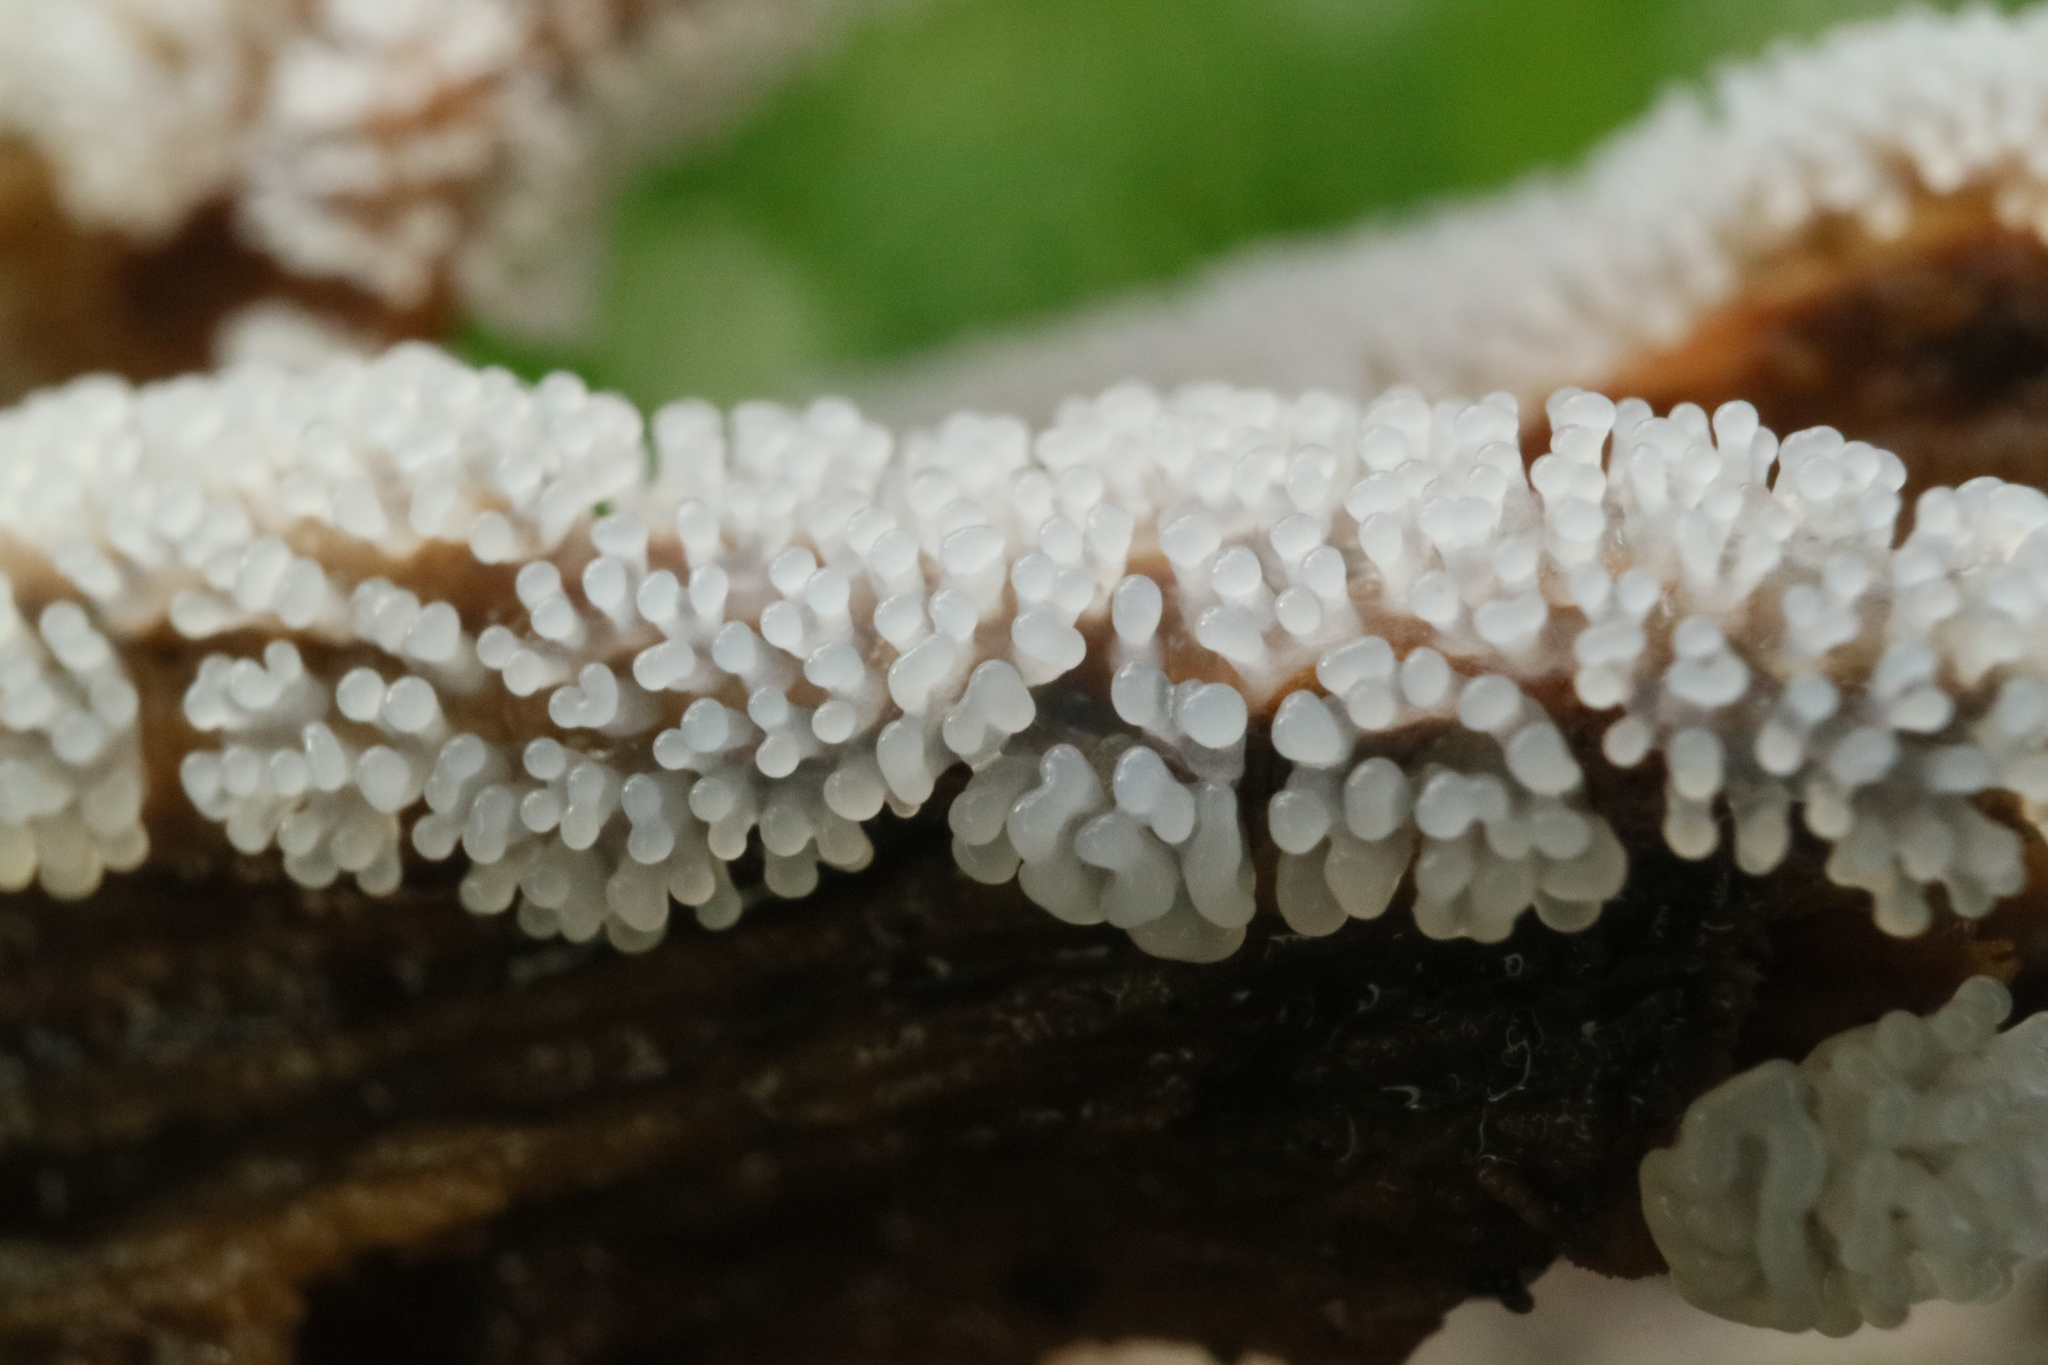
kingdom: Protozoa
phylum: Mycetozoa
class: Protosteliomycetes
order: Ceratiomyxales
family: Ceratiomyxaceae
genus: Ceratiomyxa
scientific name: Ceratiomyxa fruticulosa
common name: Honeycomb coral slime mold
